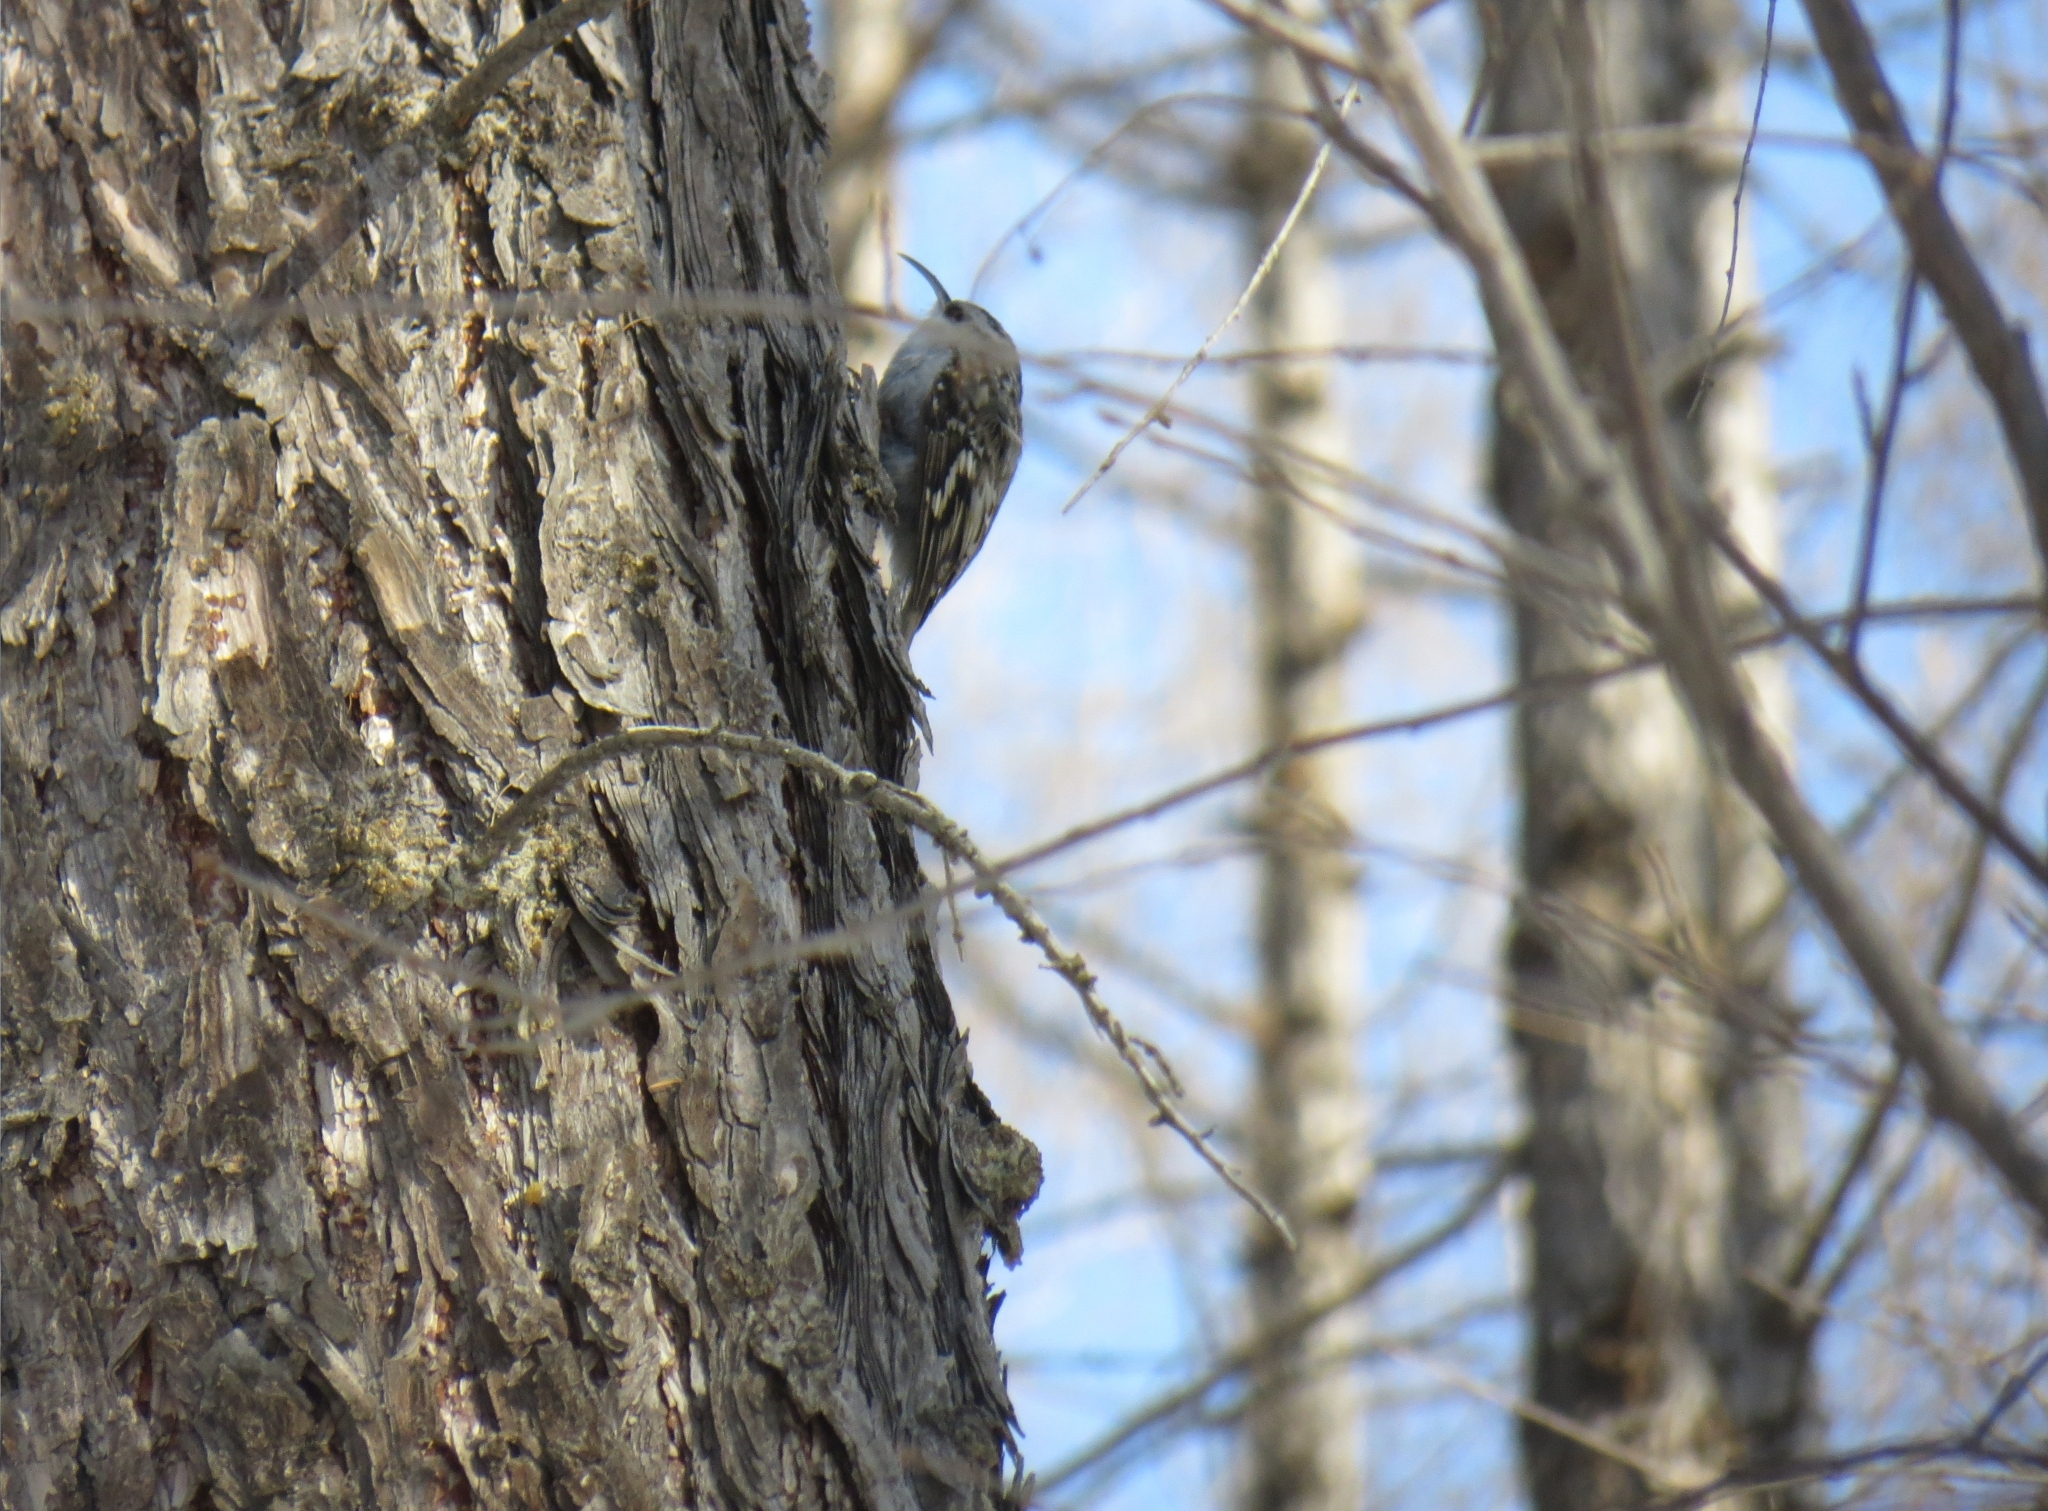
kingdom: Animalia
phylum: Chordata
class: Aves
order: Passeriformes
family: Certhiidae
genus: Certhia
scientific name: Certhia familiaris
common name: Eurasian treecreeper
